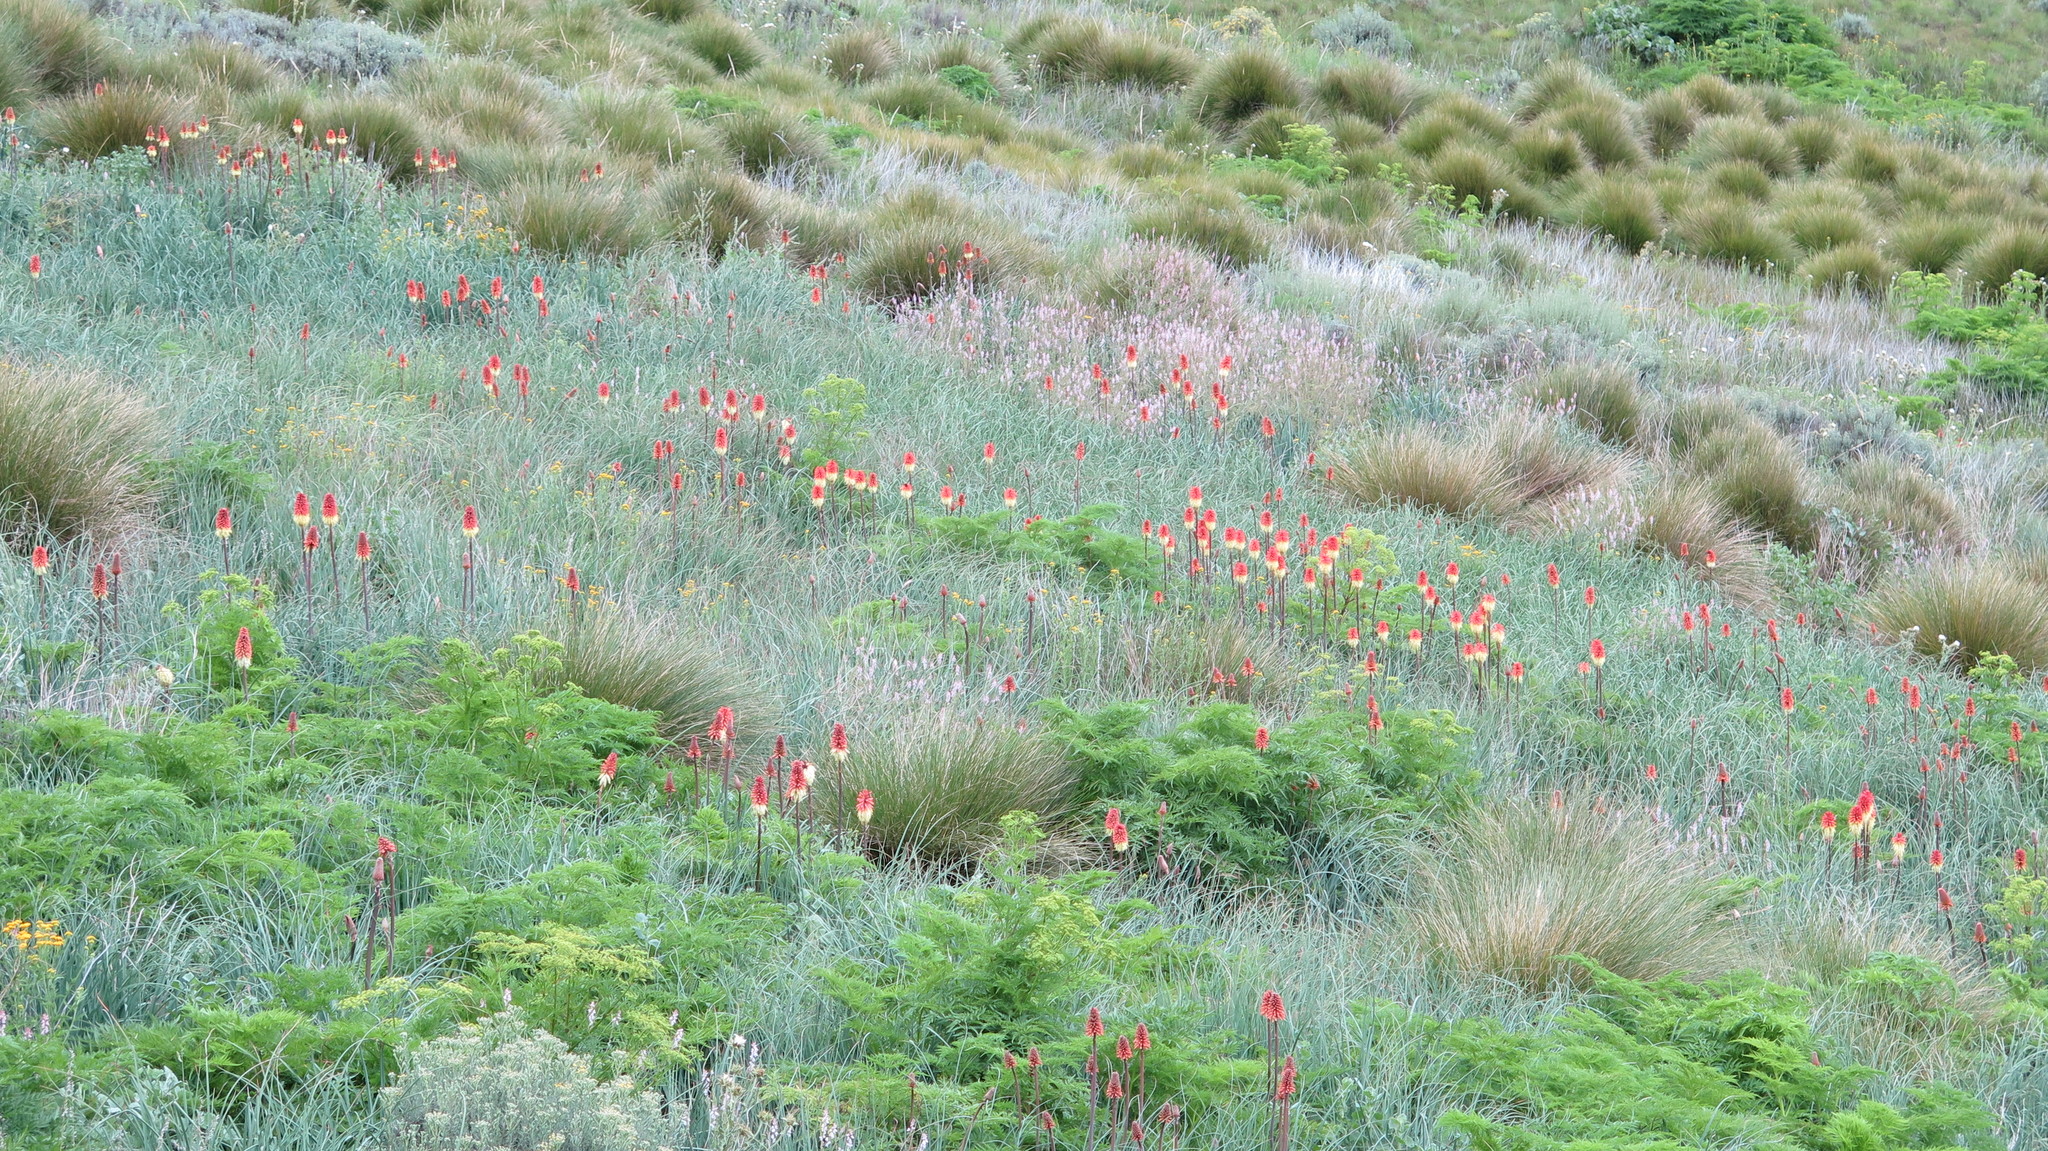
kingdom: Plantae
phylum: Tracheophyta
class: Liliopsida
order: Asparagales
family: Asphodelaceae
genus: Kniphofia
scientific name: Kniphofia caulescens
